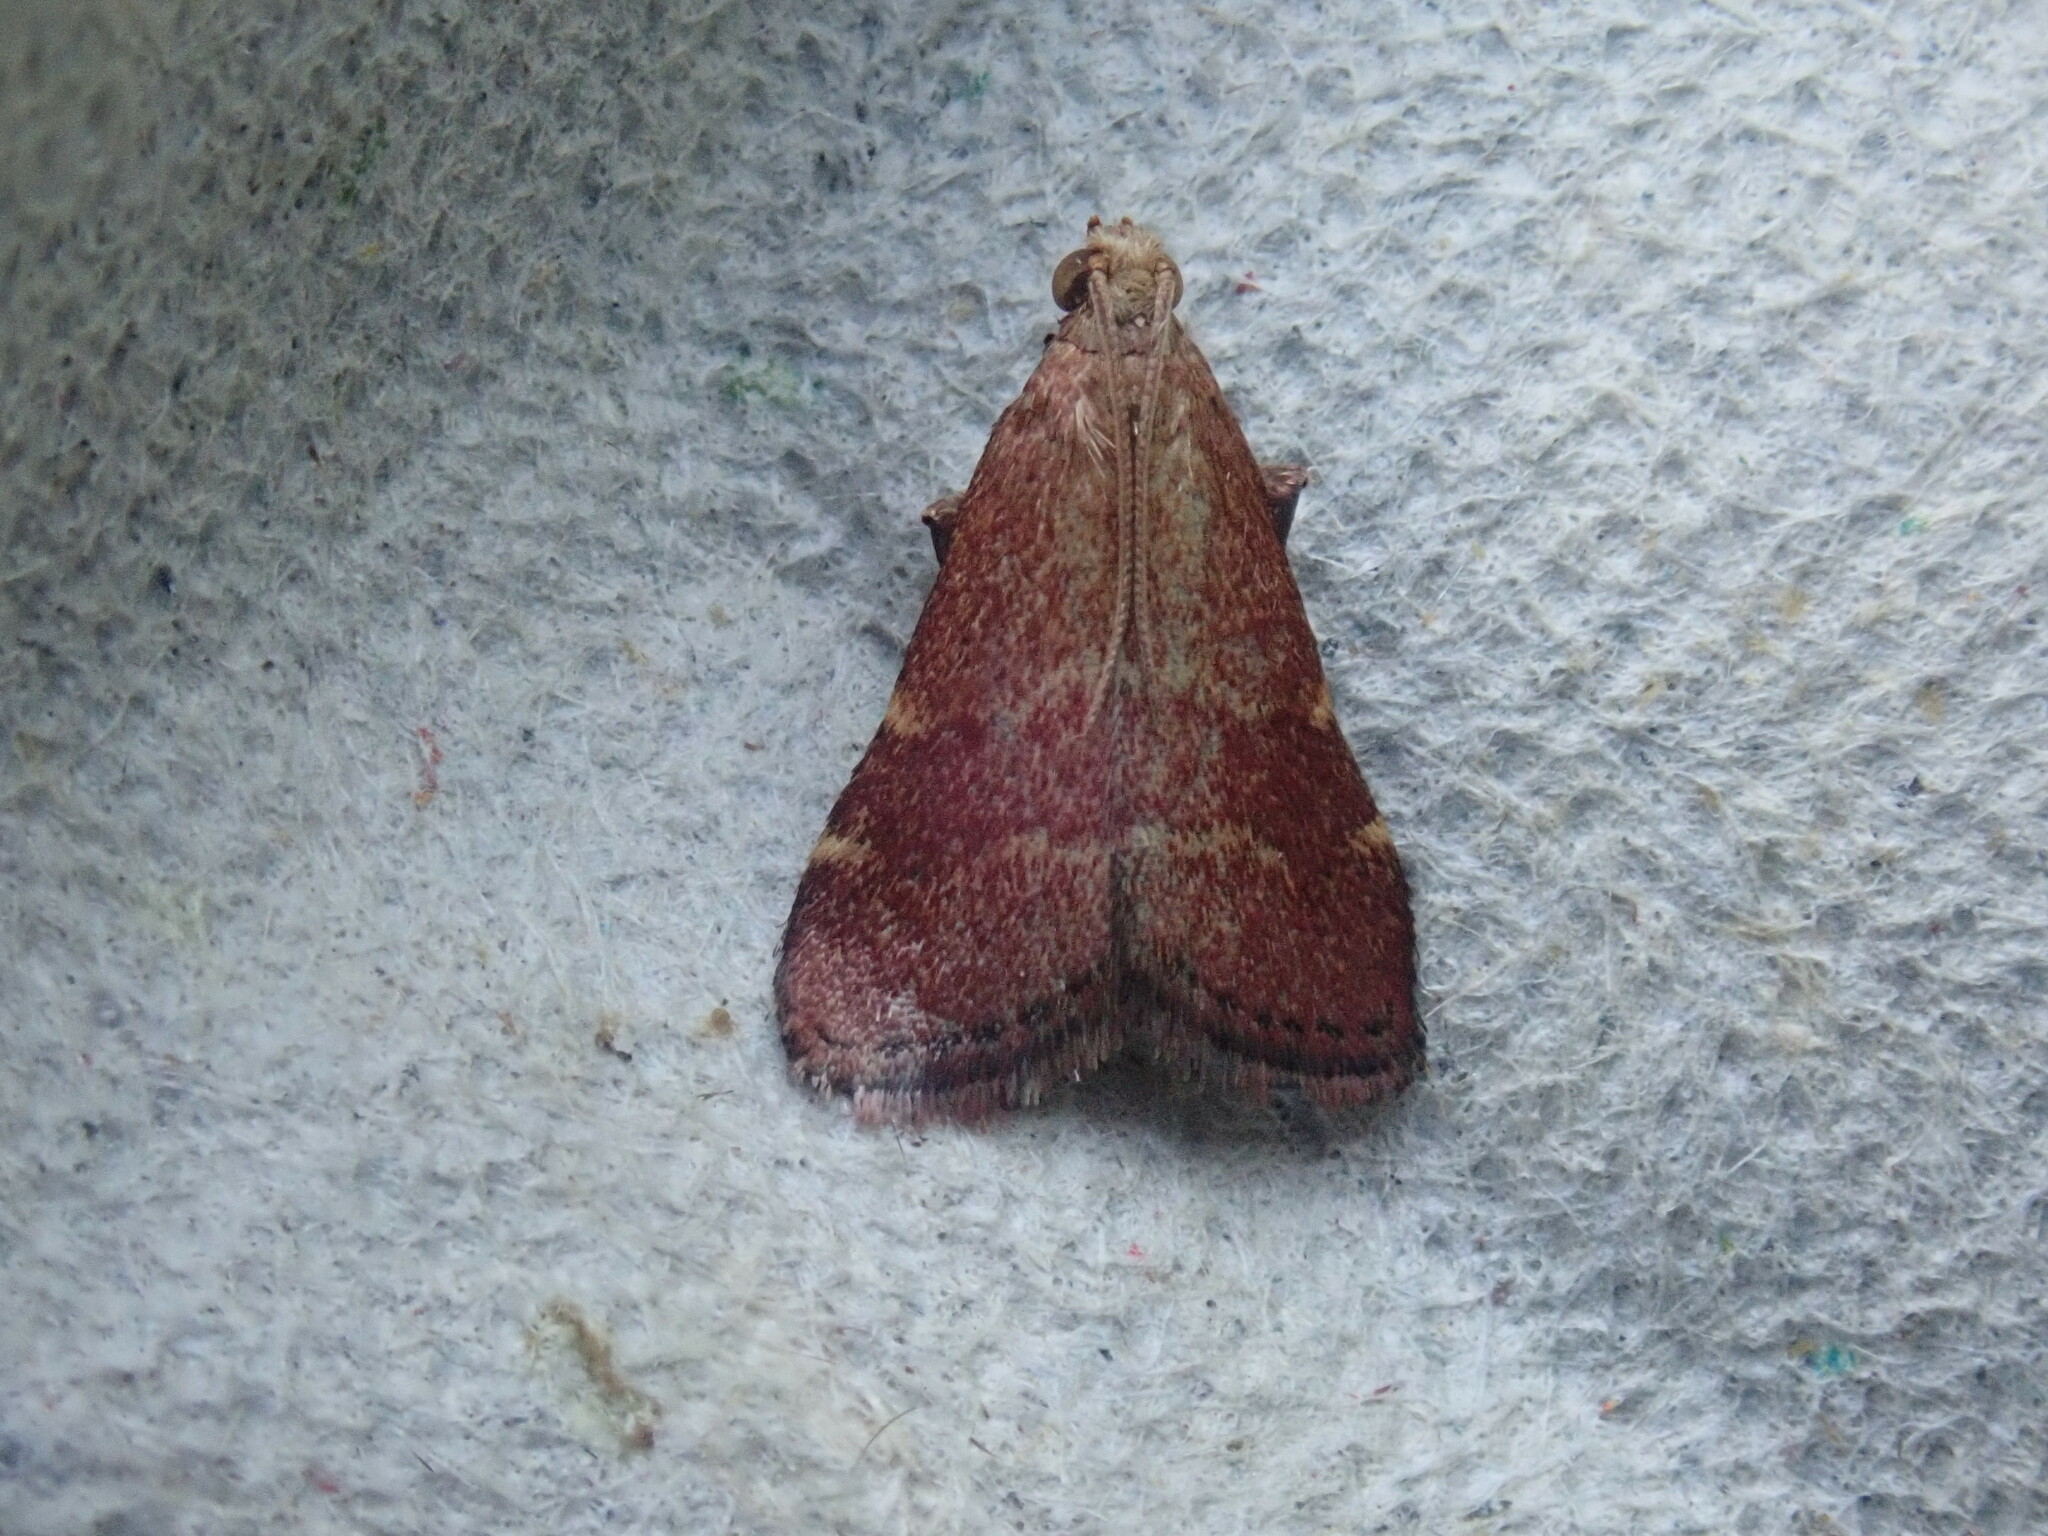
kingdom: Animalia
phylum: Arthropoda
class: Insecta
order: Lepidoptera
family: Pyralidae
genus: Arta
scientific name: Arta statalis
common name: Posturing arta moth
